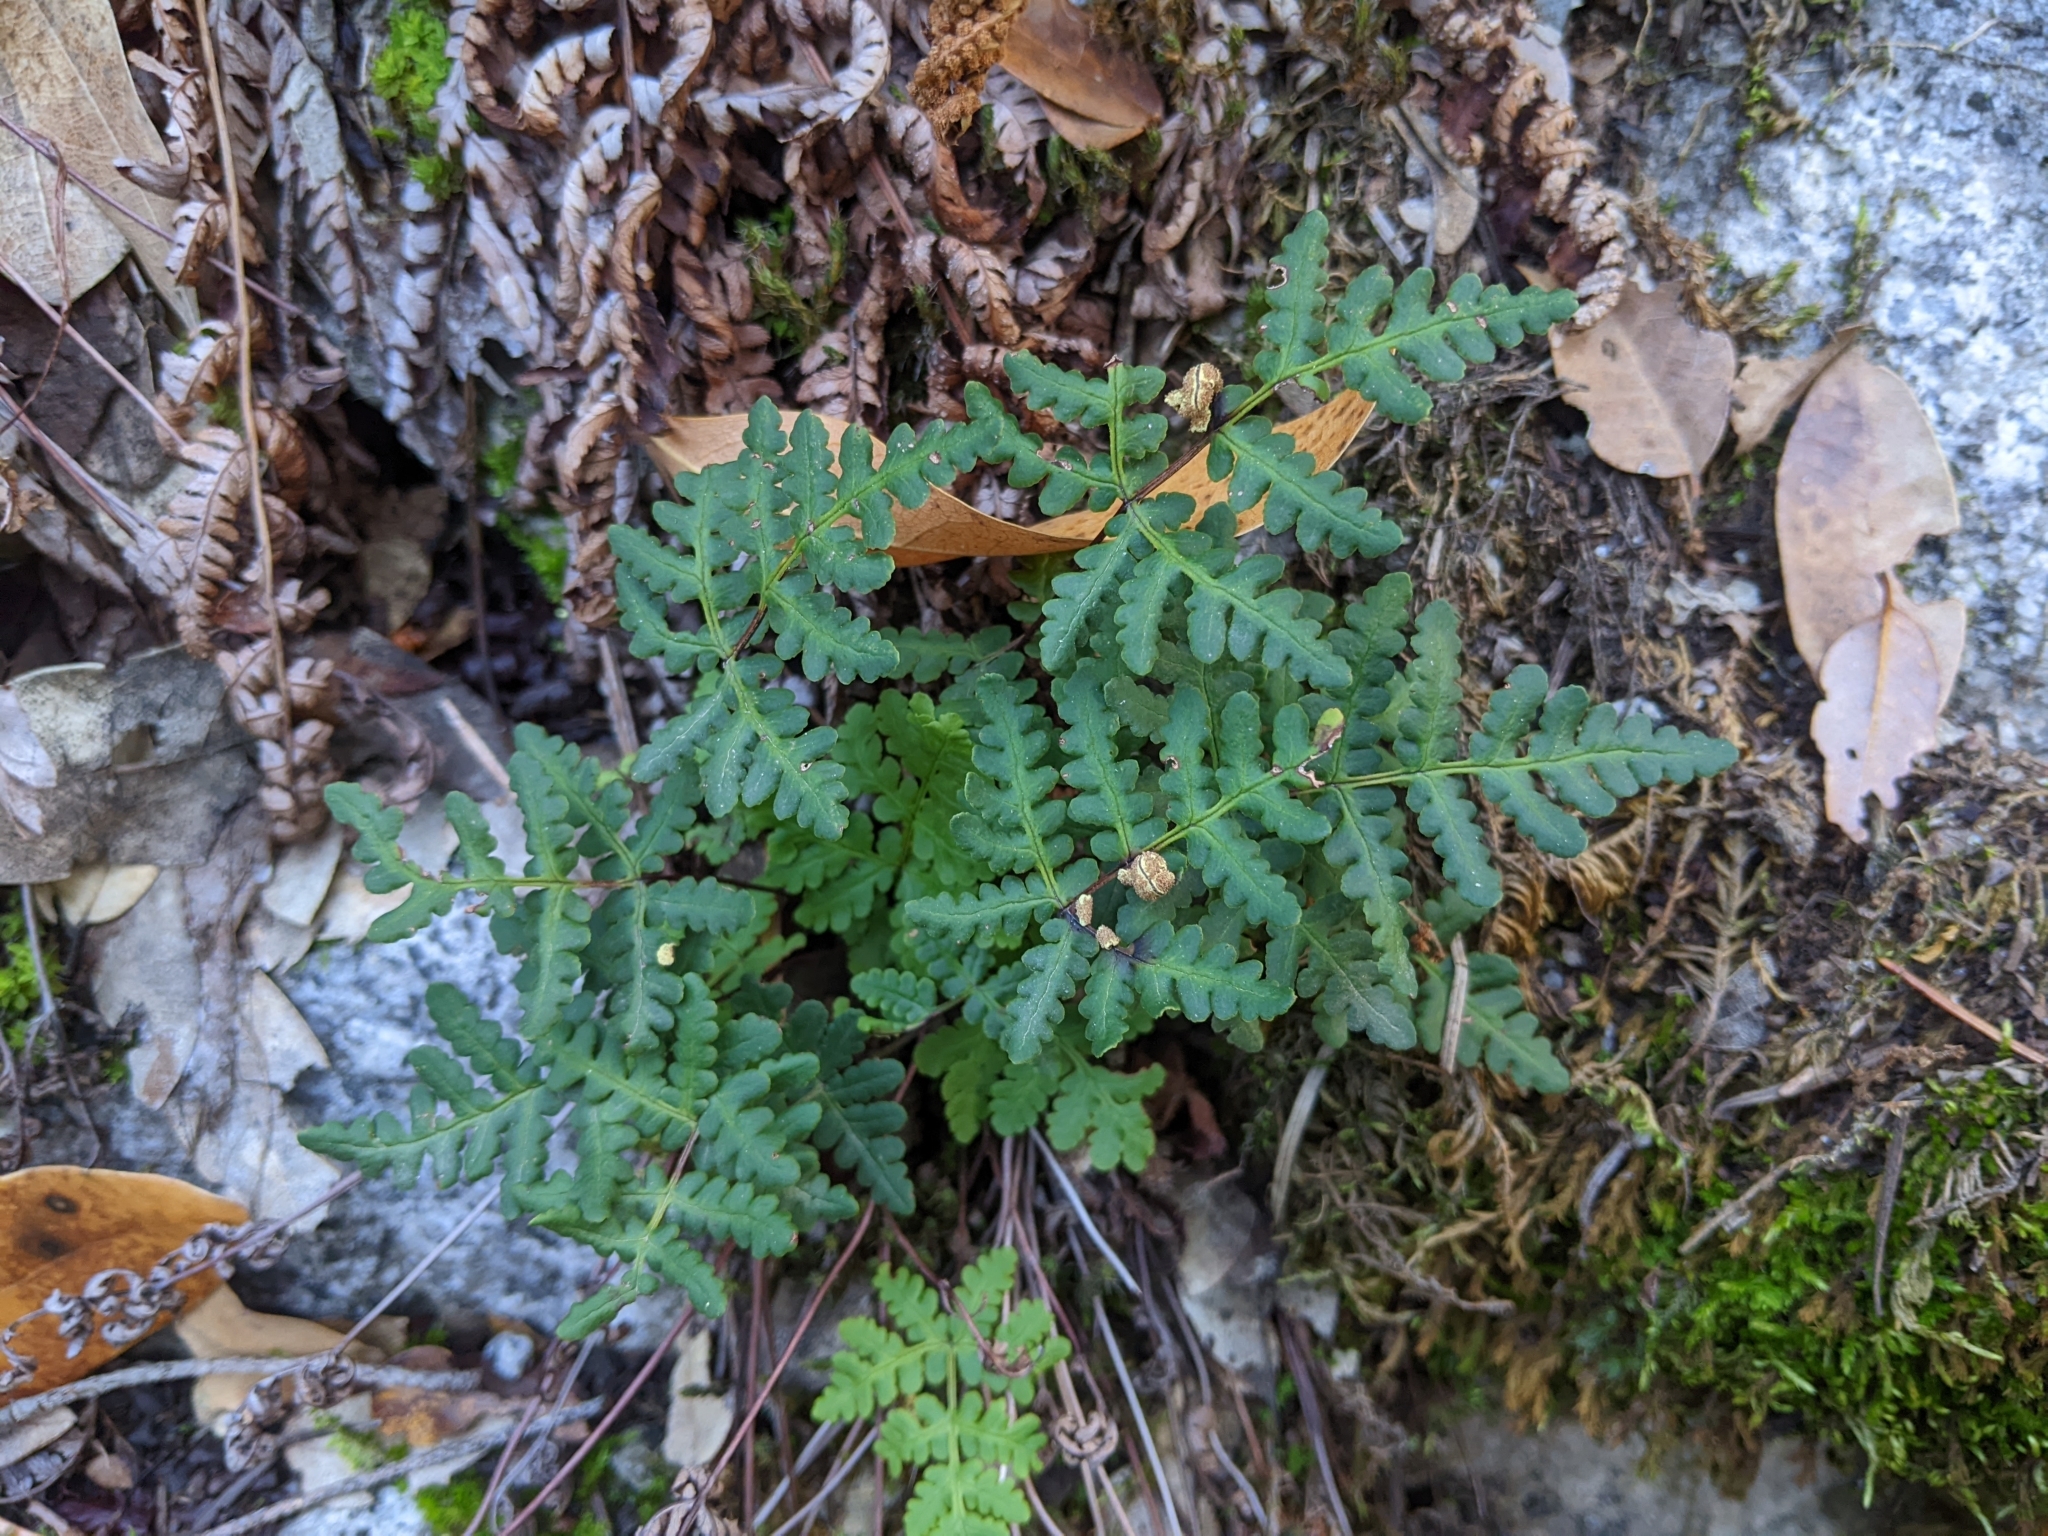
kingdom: Plantae
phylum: Tracheophyta
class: Polypodiopsida
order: Polypodiales
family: Pteridaceae
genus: Pentagramma
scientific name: Pentagramma triangularis
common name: Gold fern
